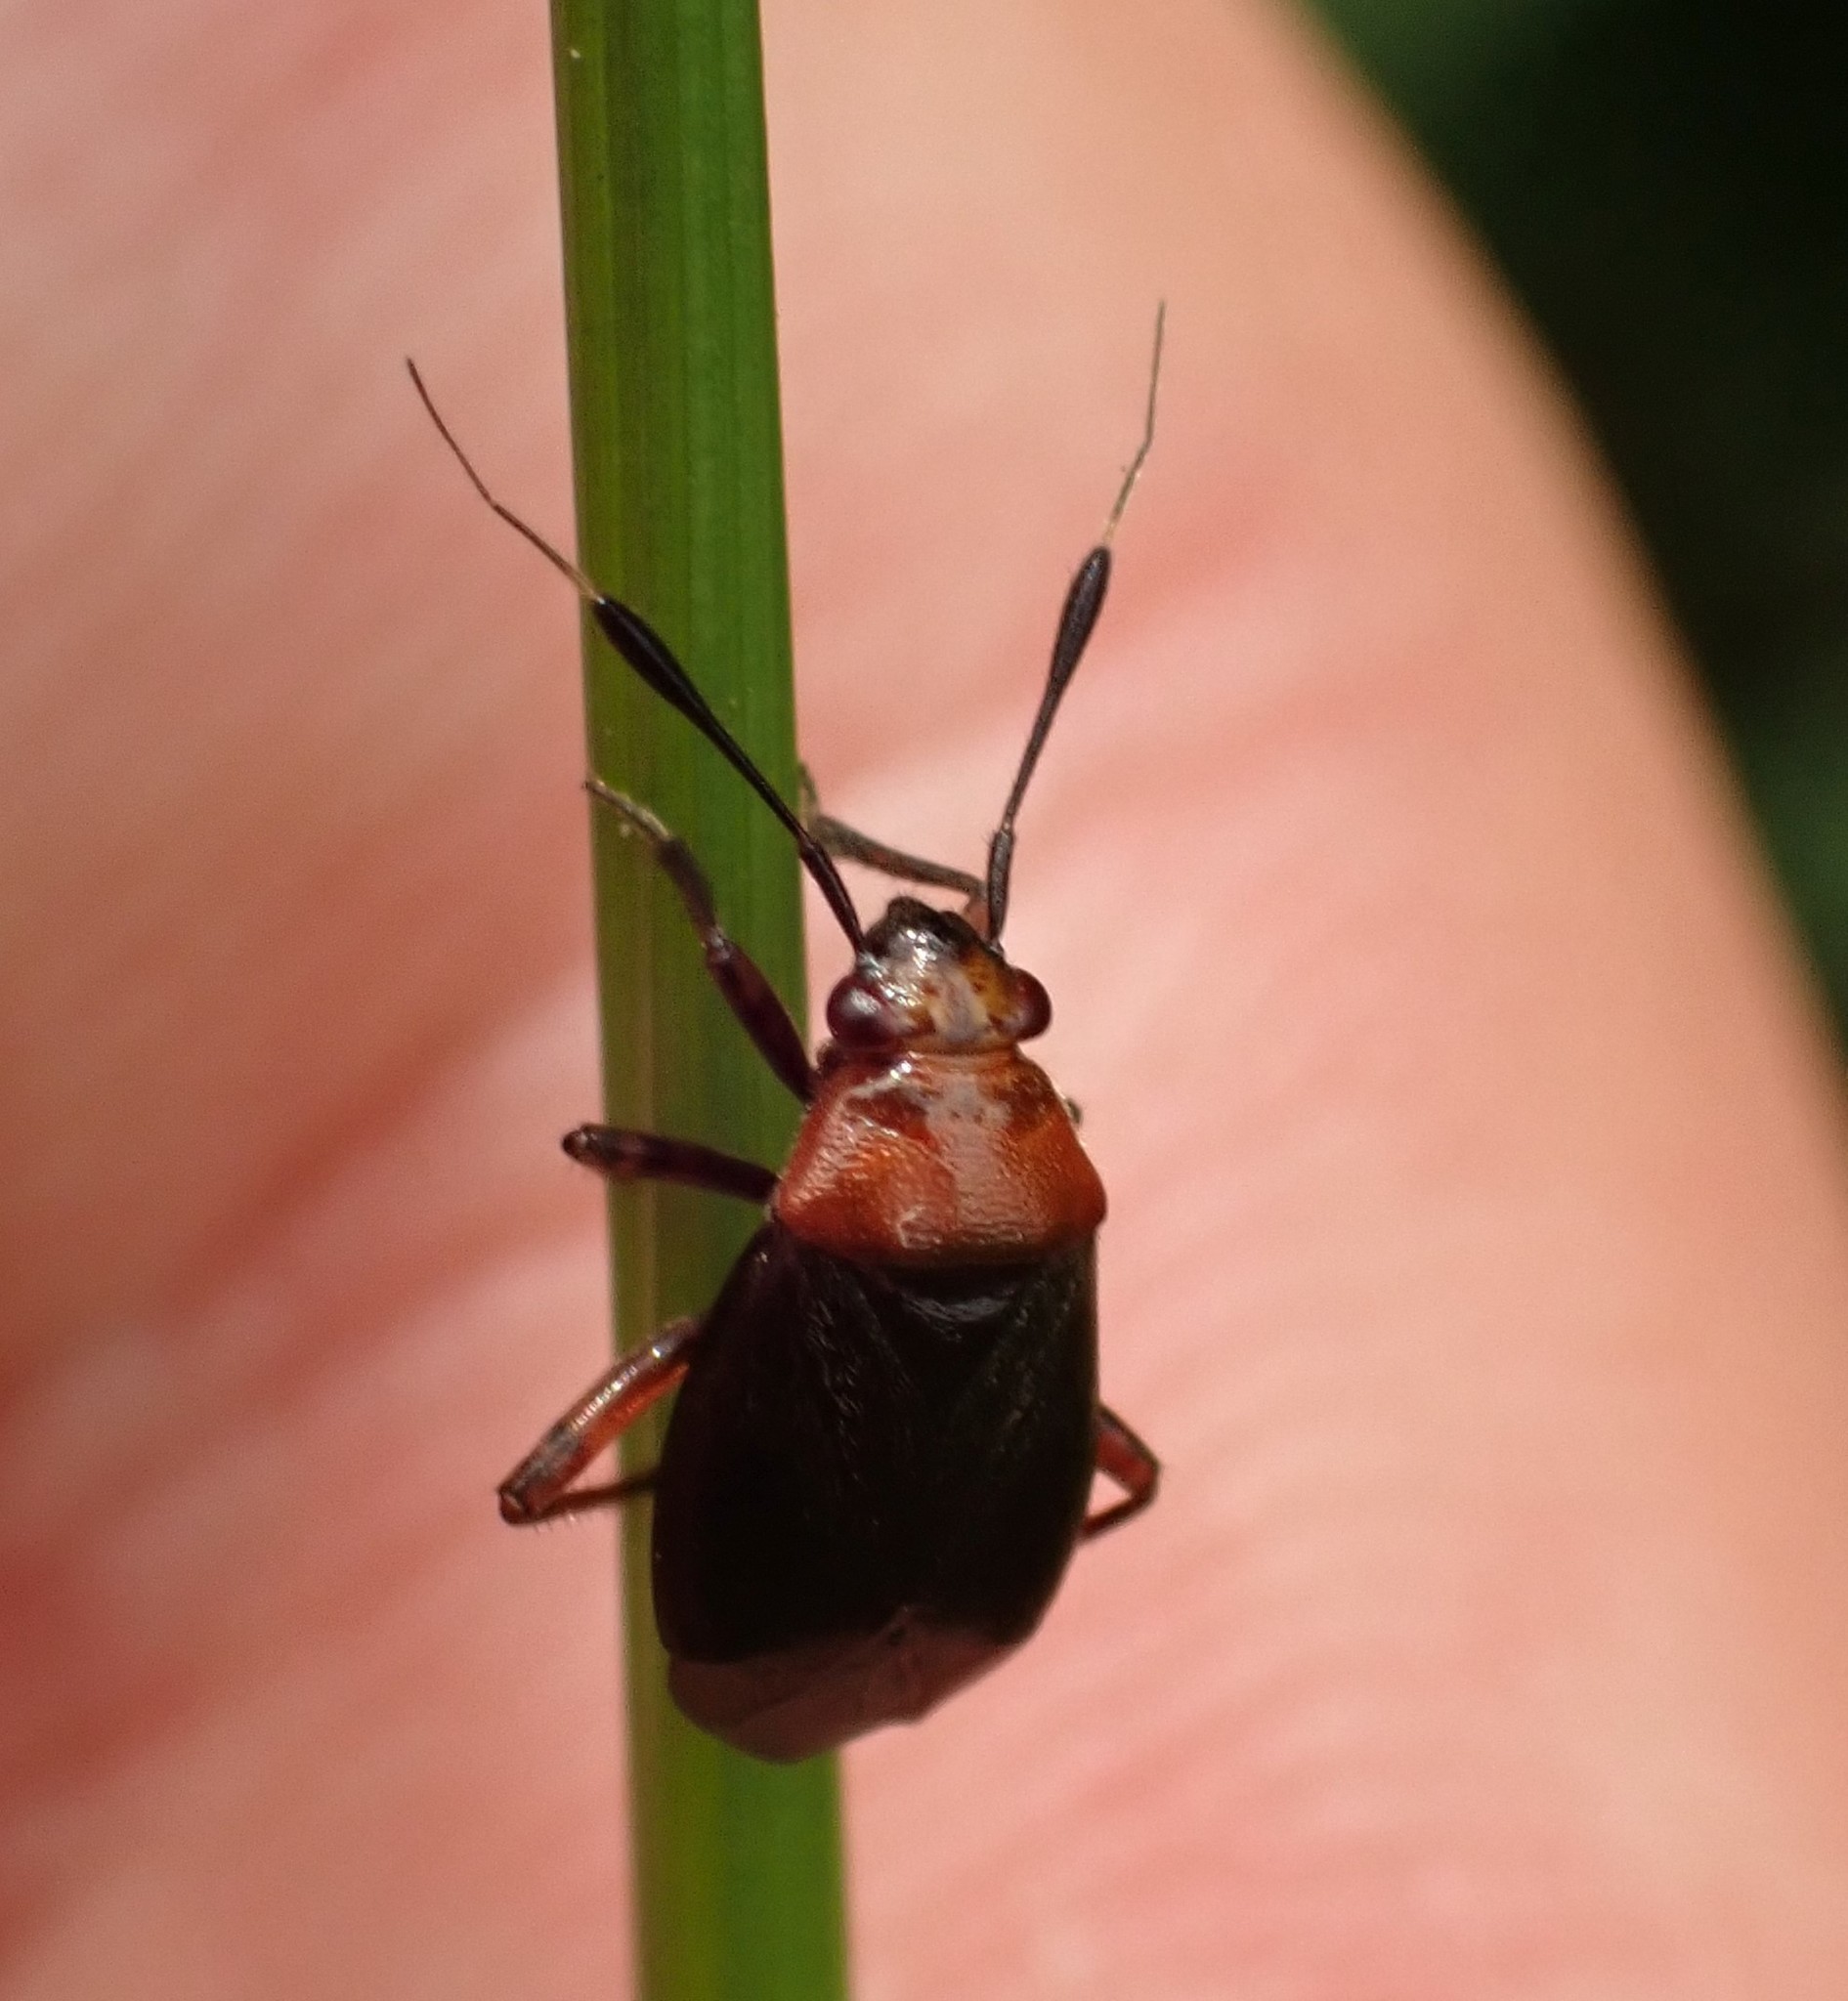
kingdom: Animalia
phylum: Arthropoda
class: Insecta
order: Hemiptera
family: Miridae
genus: Capsus
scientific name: Capsus ater
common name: Black plant bug
